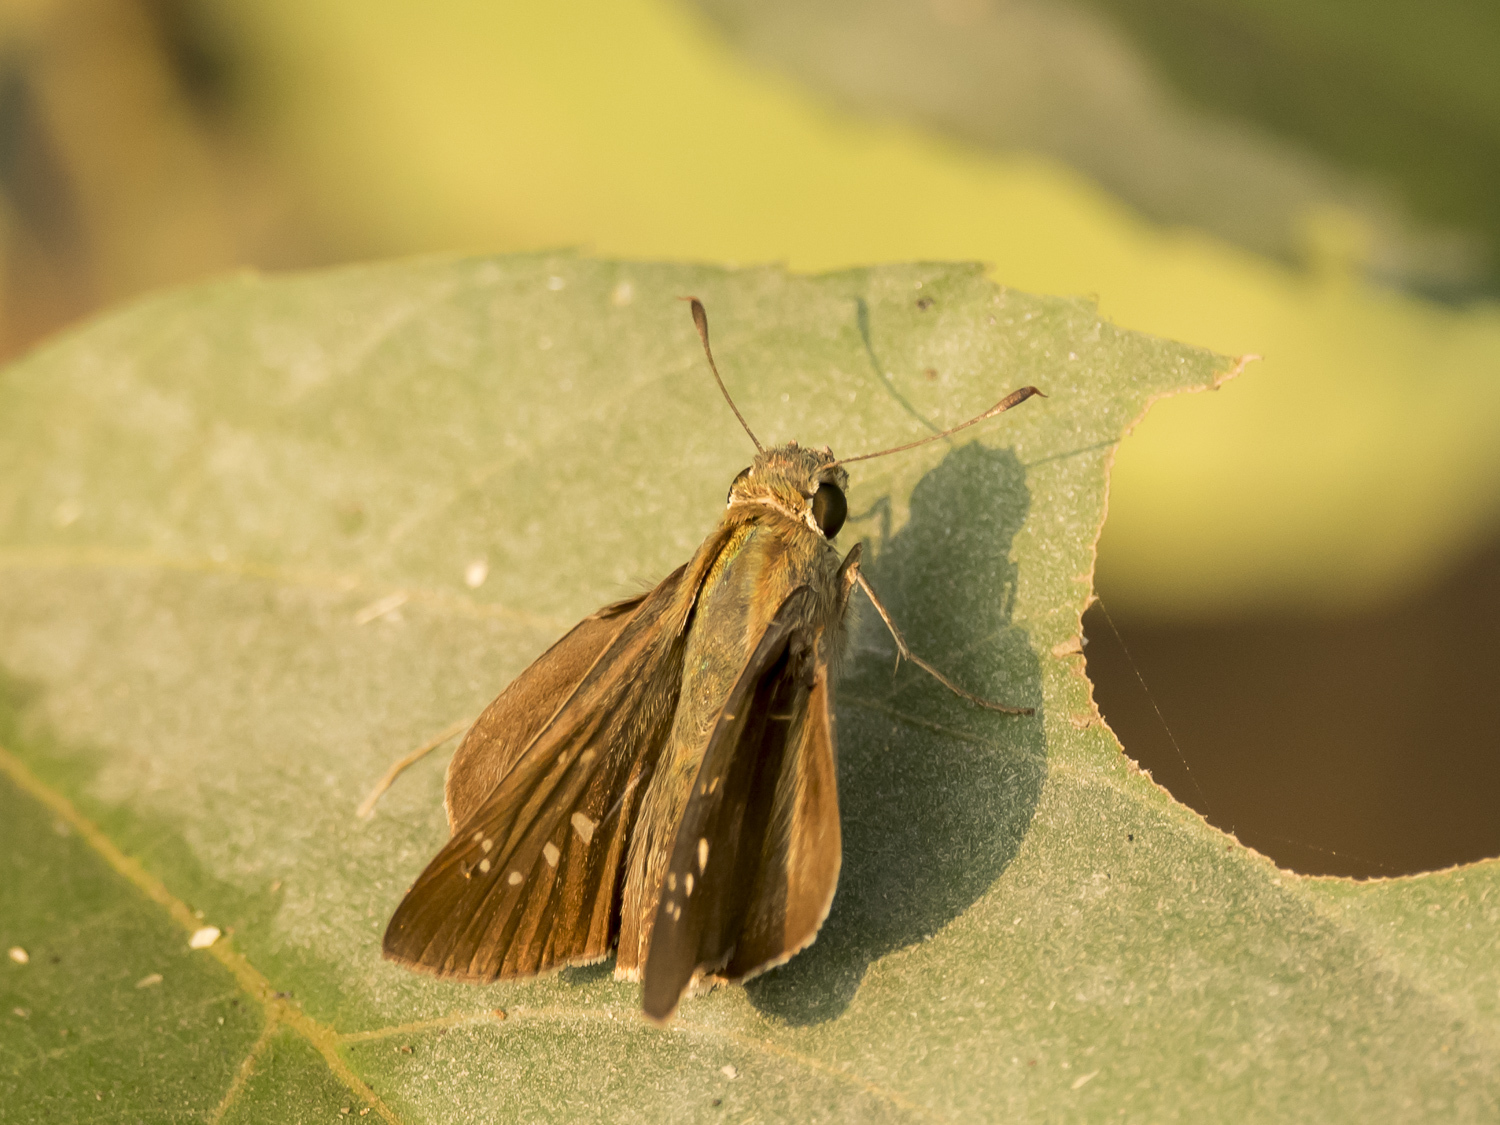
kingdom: Animalia
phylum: Arthropoda
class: Insecta
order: Lepidoptera
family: Hesperiidae
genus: Pelopidas
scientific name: Pelopidas agna
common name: Little branded swift
